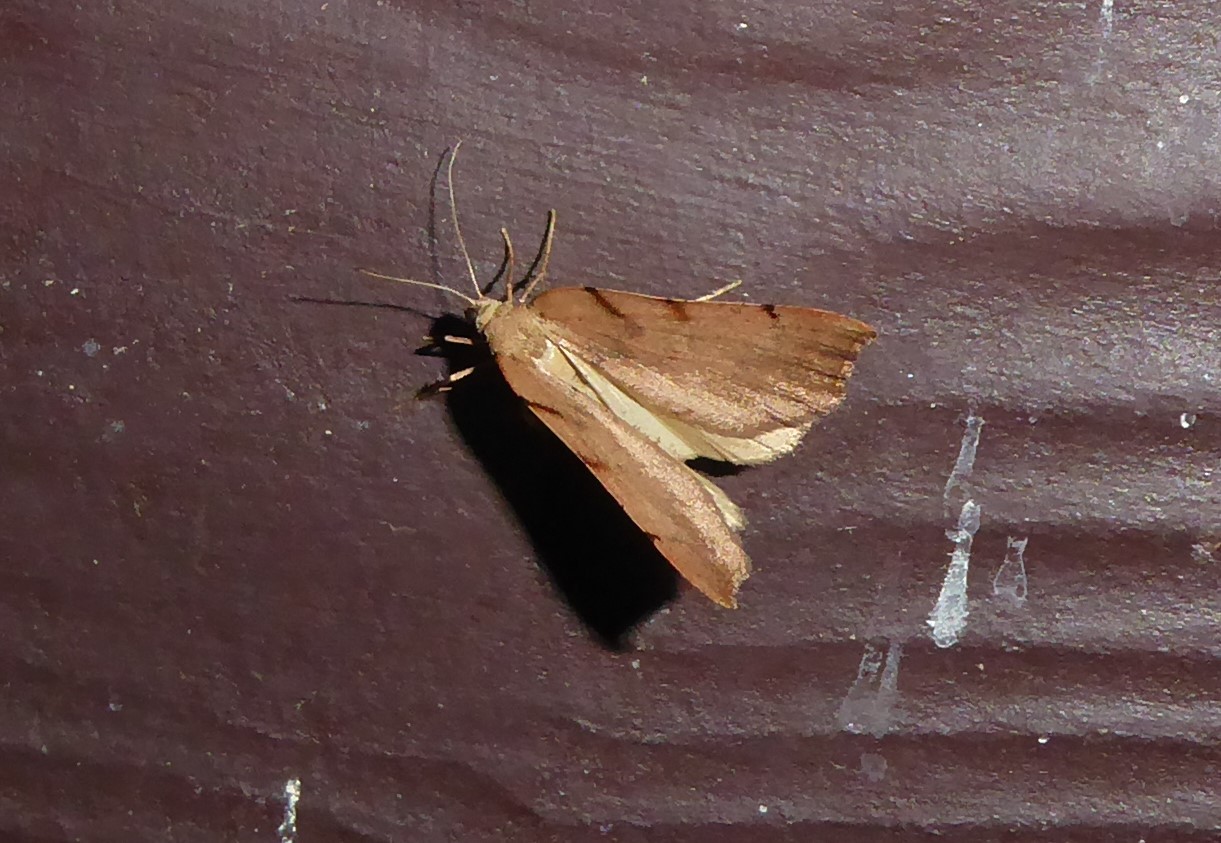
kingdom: Animalia
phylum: Arthropoda
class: Insecta
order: Lepidoptera
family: Geometridae
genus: Sestra
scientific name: Sestra humeraria
